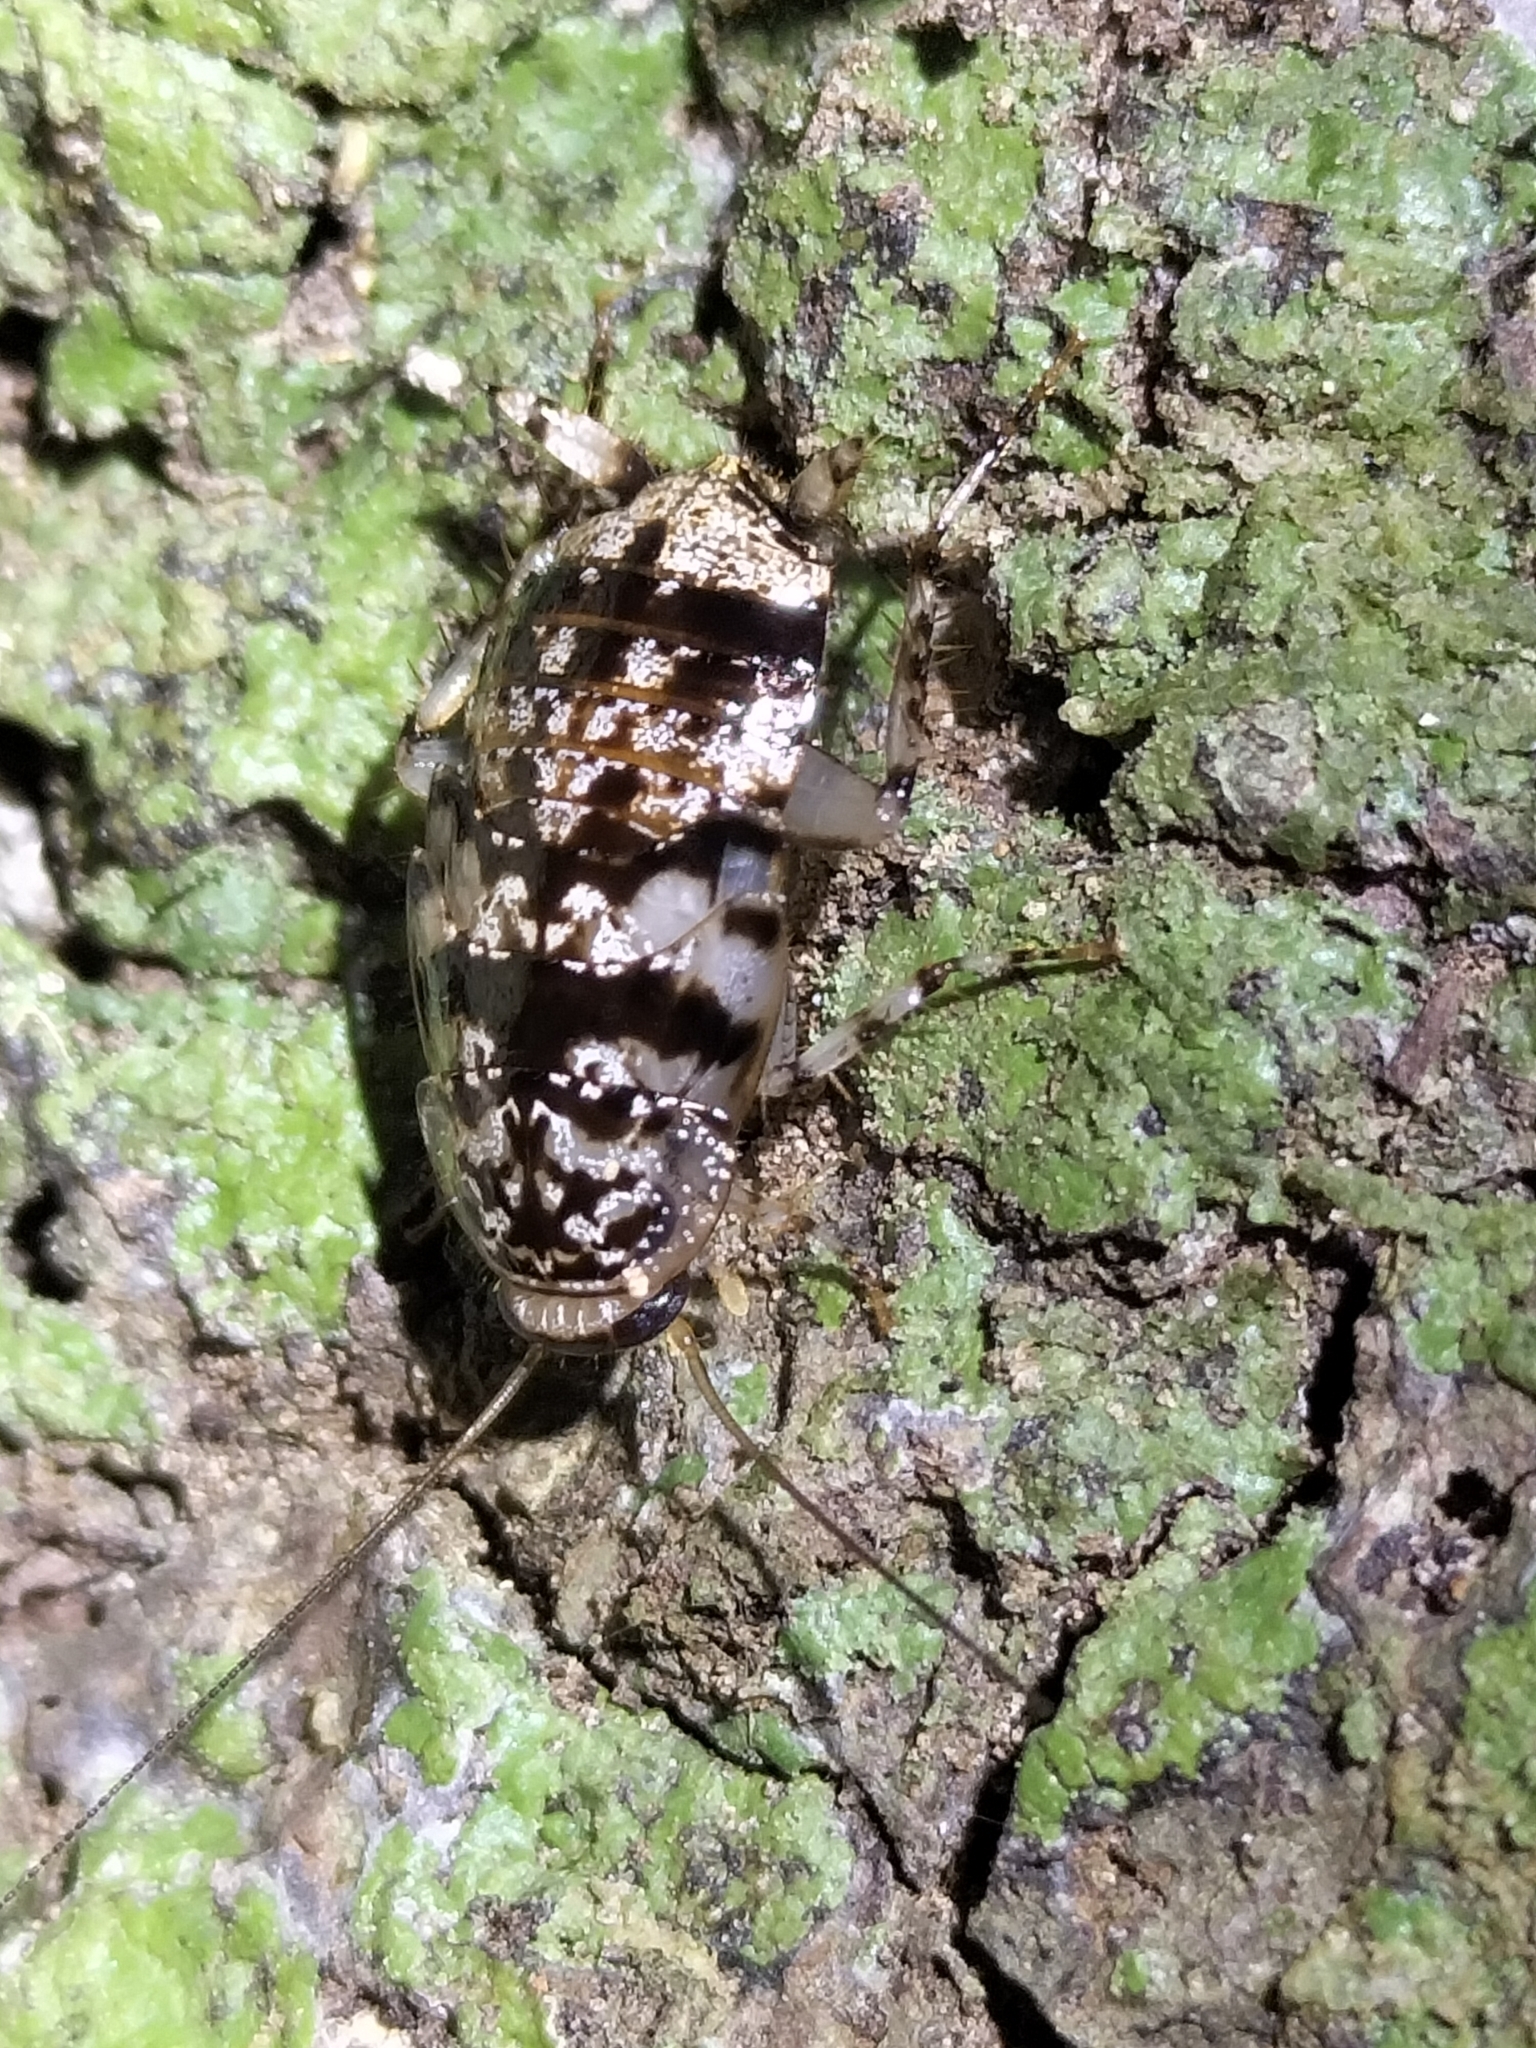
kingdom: Animalia
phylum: Arthropoda
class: Insecta
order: Blattodea
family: Ectobiidae
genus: Allacta
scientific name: Allacta australiensis
